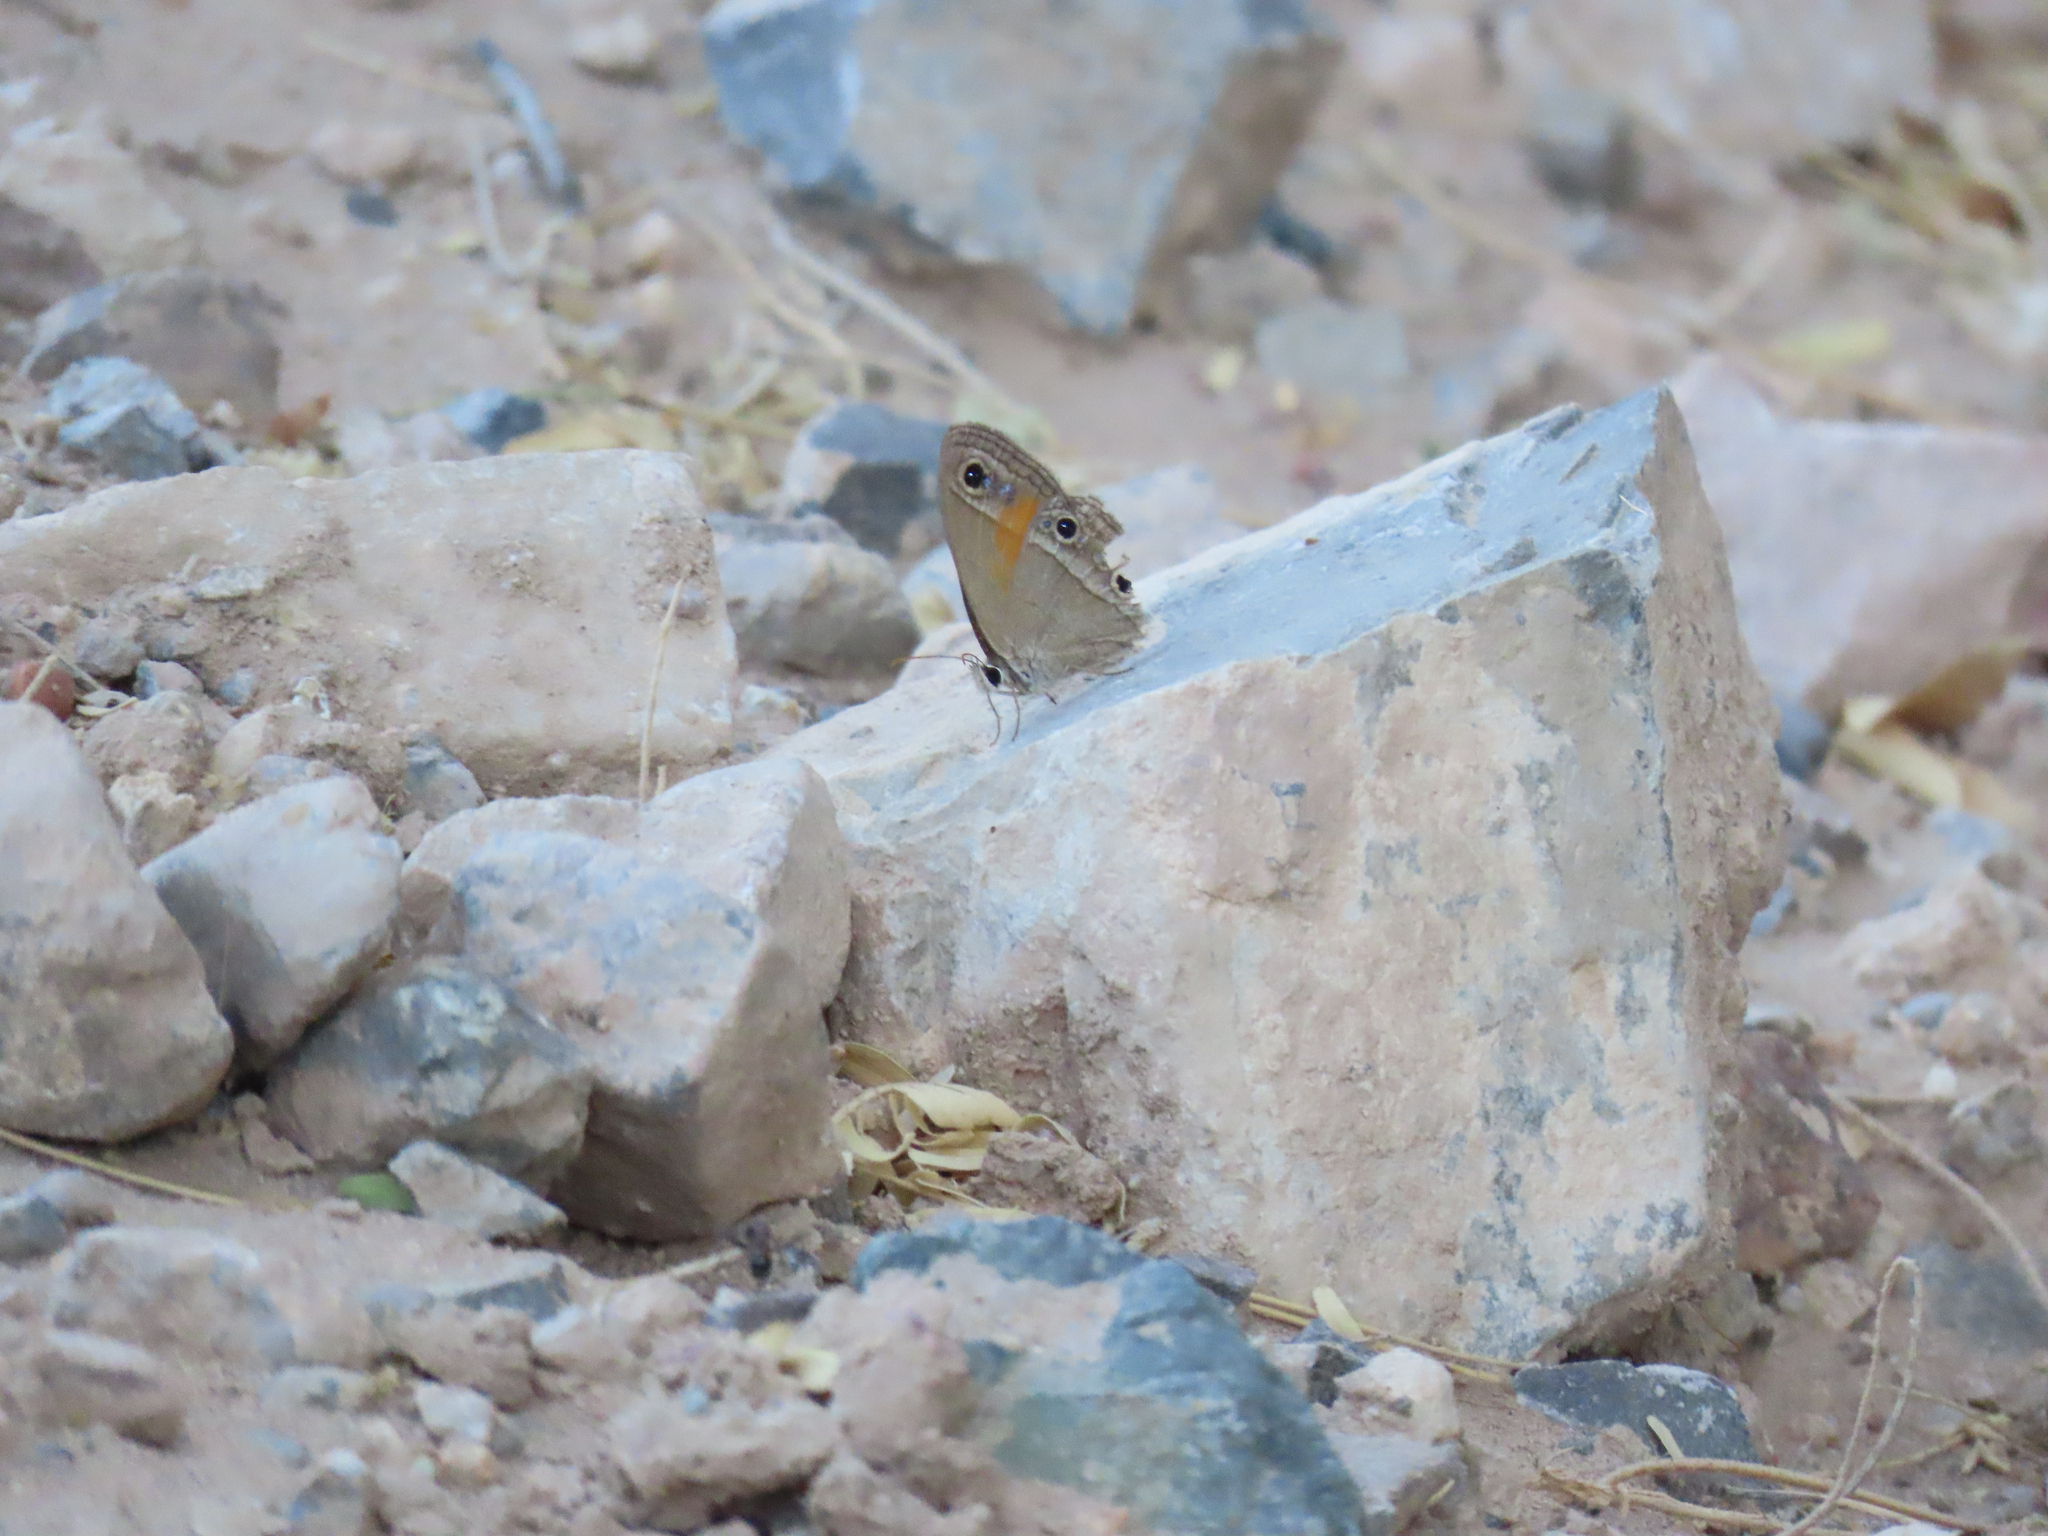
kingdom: Animalia
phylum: Arthropoda
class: Insecta
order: Lepidoptera
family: Nymphalidae
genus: Euptychia
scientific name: Euptychia
